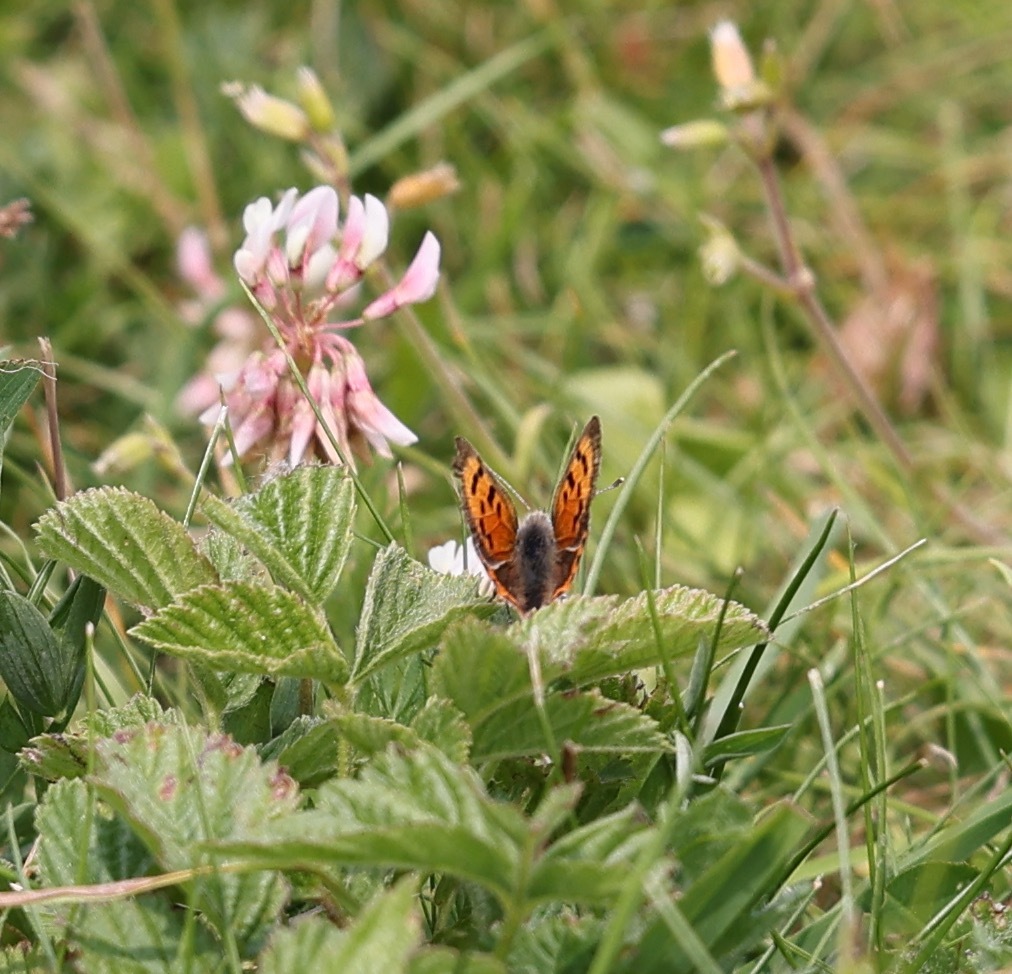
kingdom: Animalia
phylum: Arthropoda
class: Insecta
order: Lepidoptera
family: Lycaenidae
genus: Lycaena
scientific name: Lycaena phlaeas
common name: Small copper
